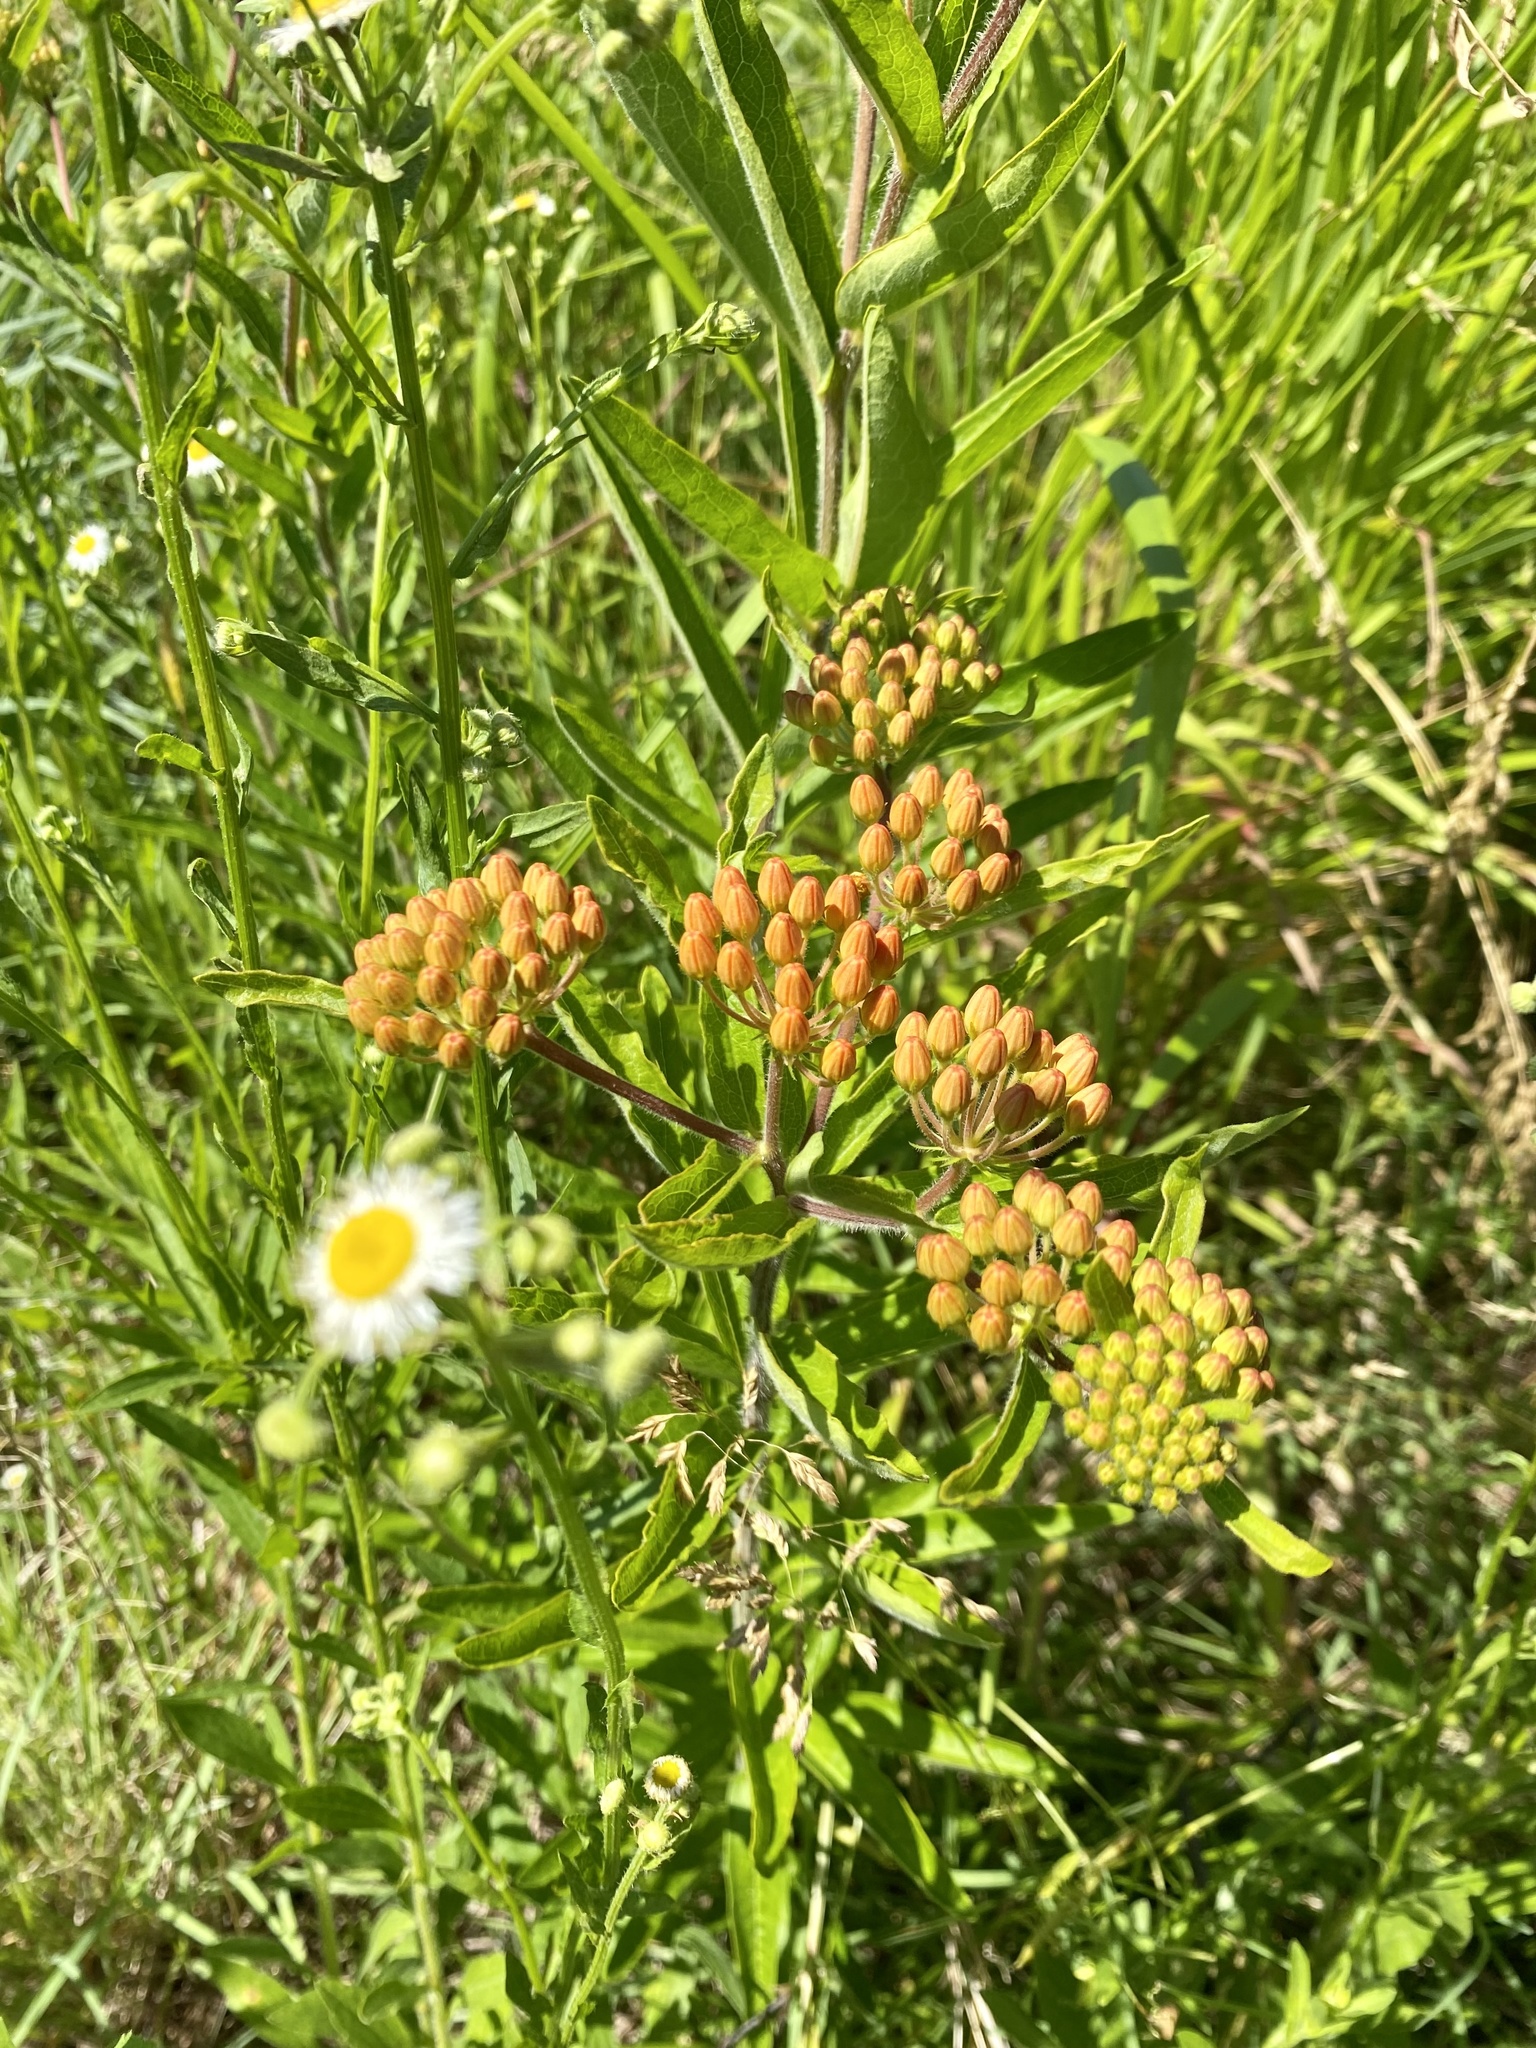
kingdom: Plantae
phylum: Tracheophyta
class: Magnoliopsida
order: Gentianales
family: Apocynaceae
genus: Asclepias
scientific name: Asclepias tuberosa
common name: Butterfly milkweed
